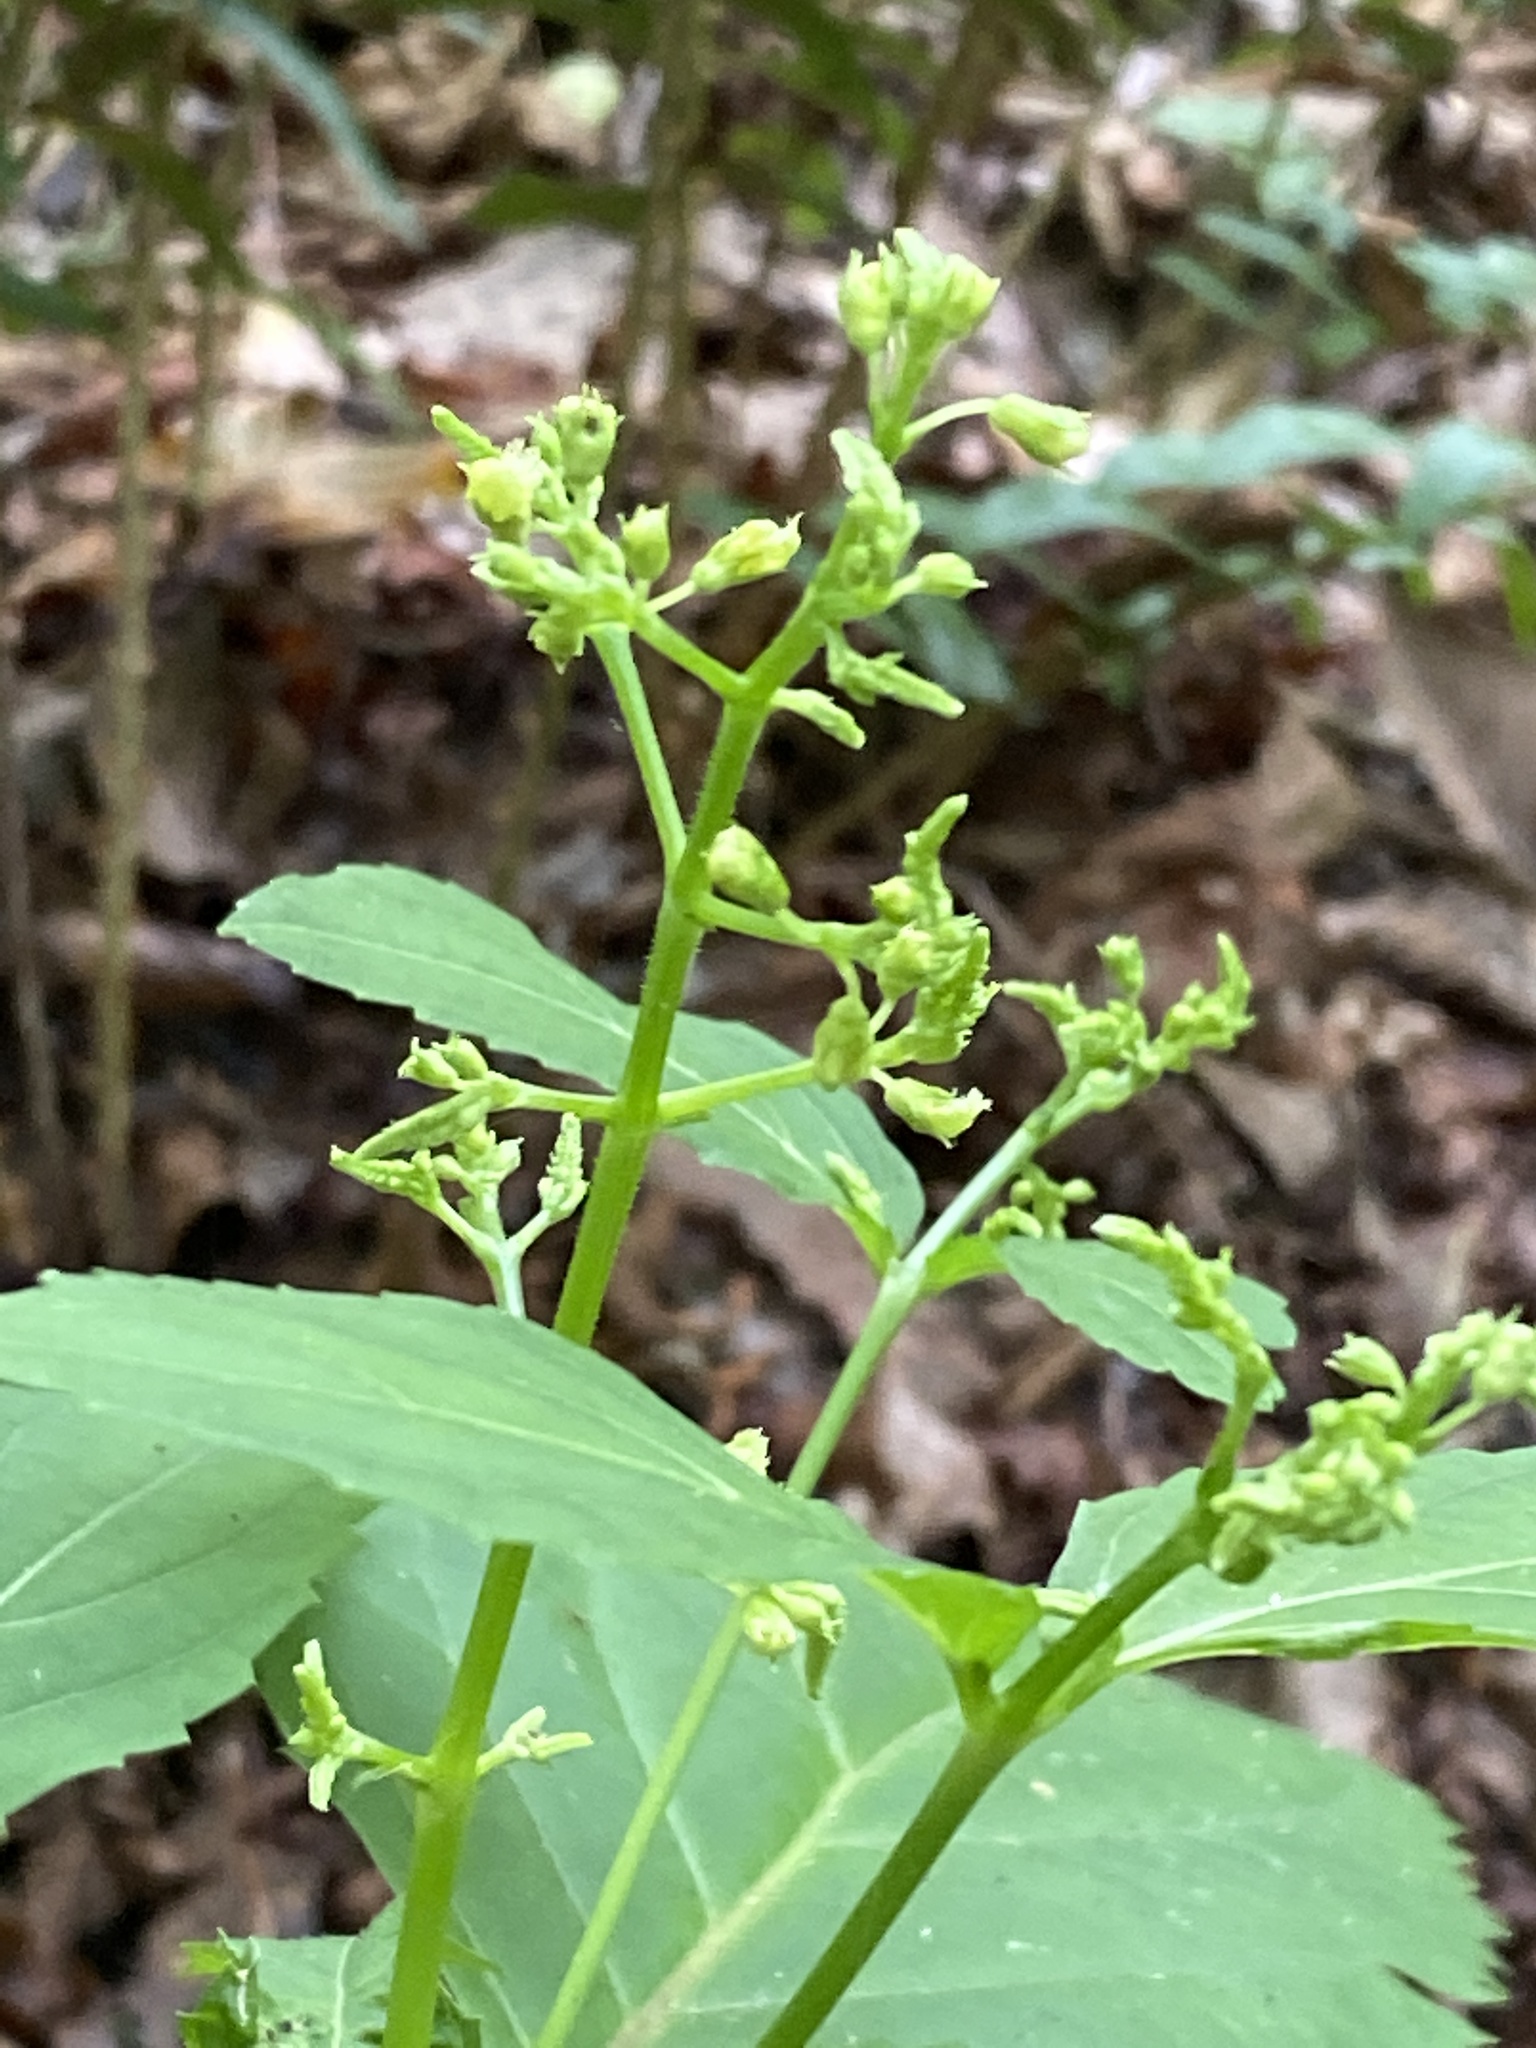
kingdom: Plantae
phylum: Tracheophyta
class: Magnoliopsida
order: Lamiales
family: Lamiaceae
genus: Collinsonia
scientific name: Collinsonia canadensis
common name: Northern horsebalm
